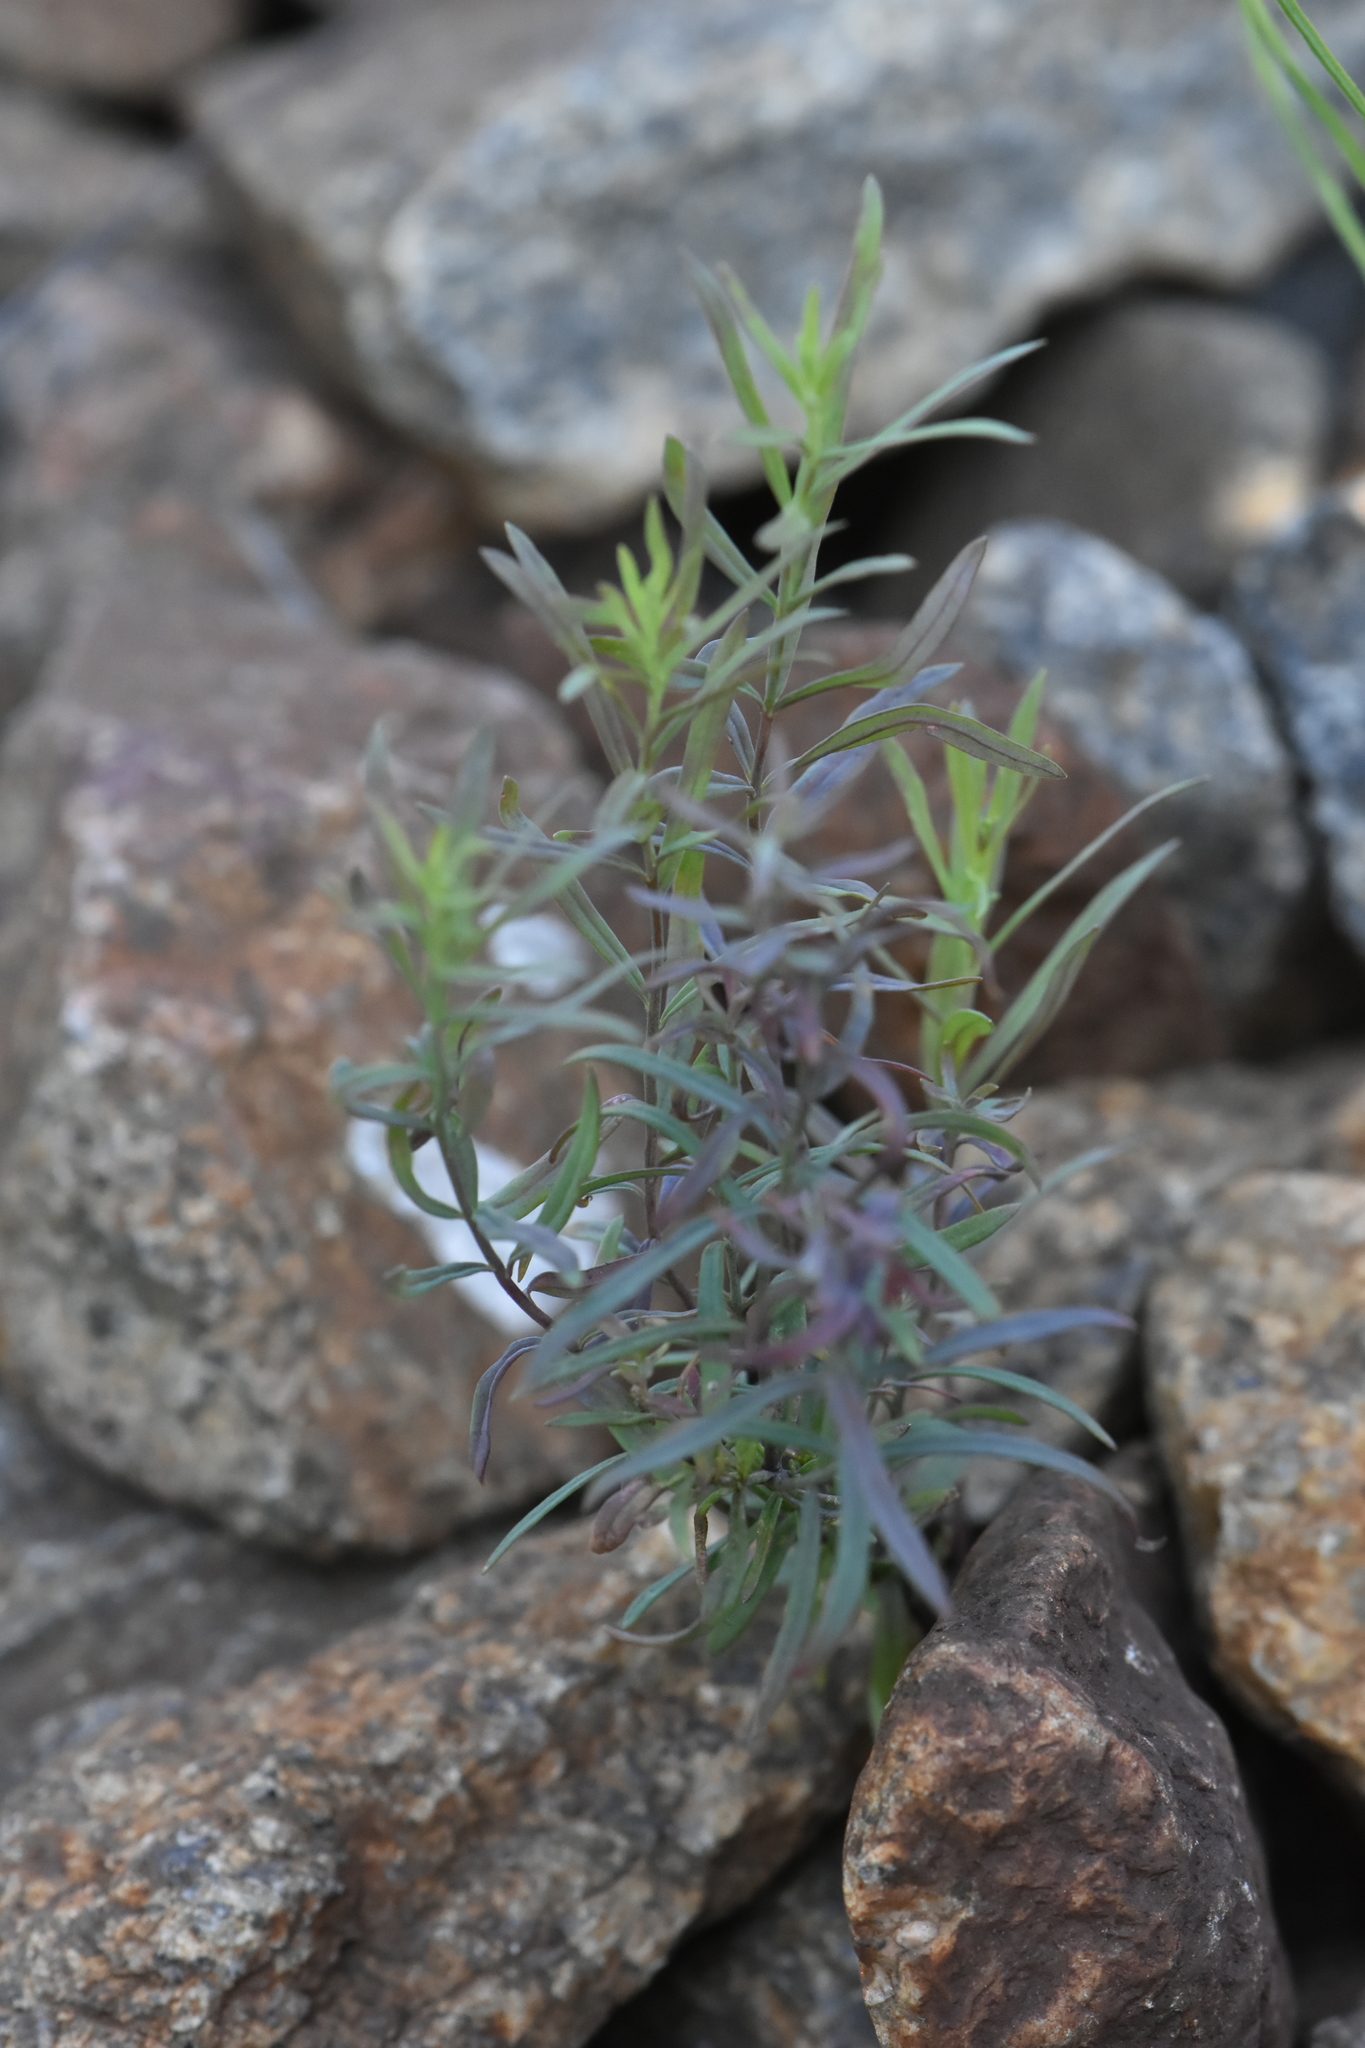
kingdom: Plantae
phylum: Tracheophyta
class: Magnoliopsida
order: Lamiales
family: Plantaginaceae
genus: Linaria
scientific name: Linaria vulgaris
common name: Butter and eggs
